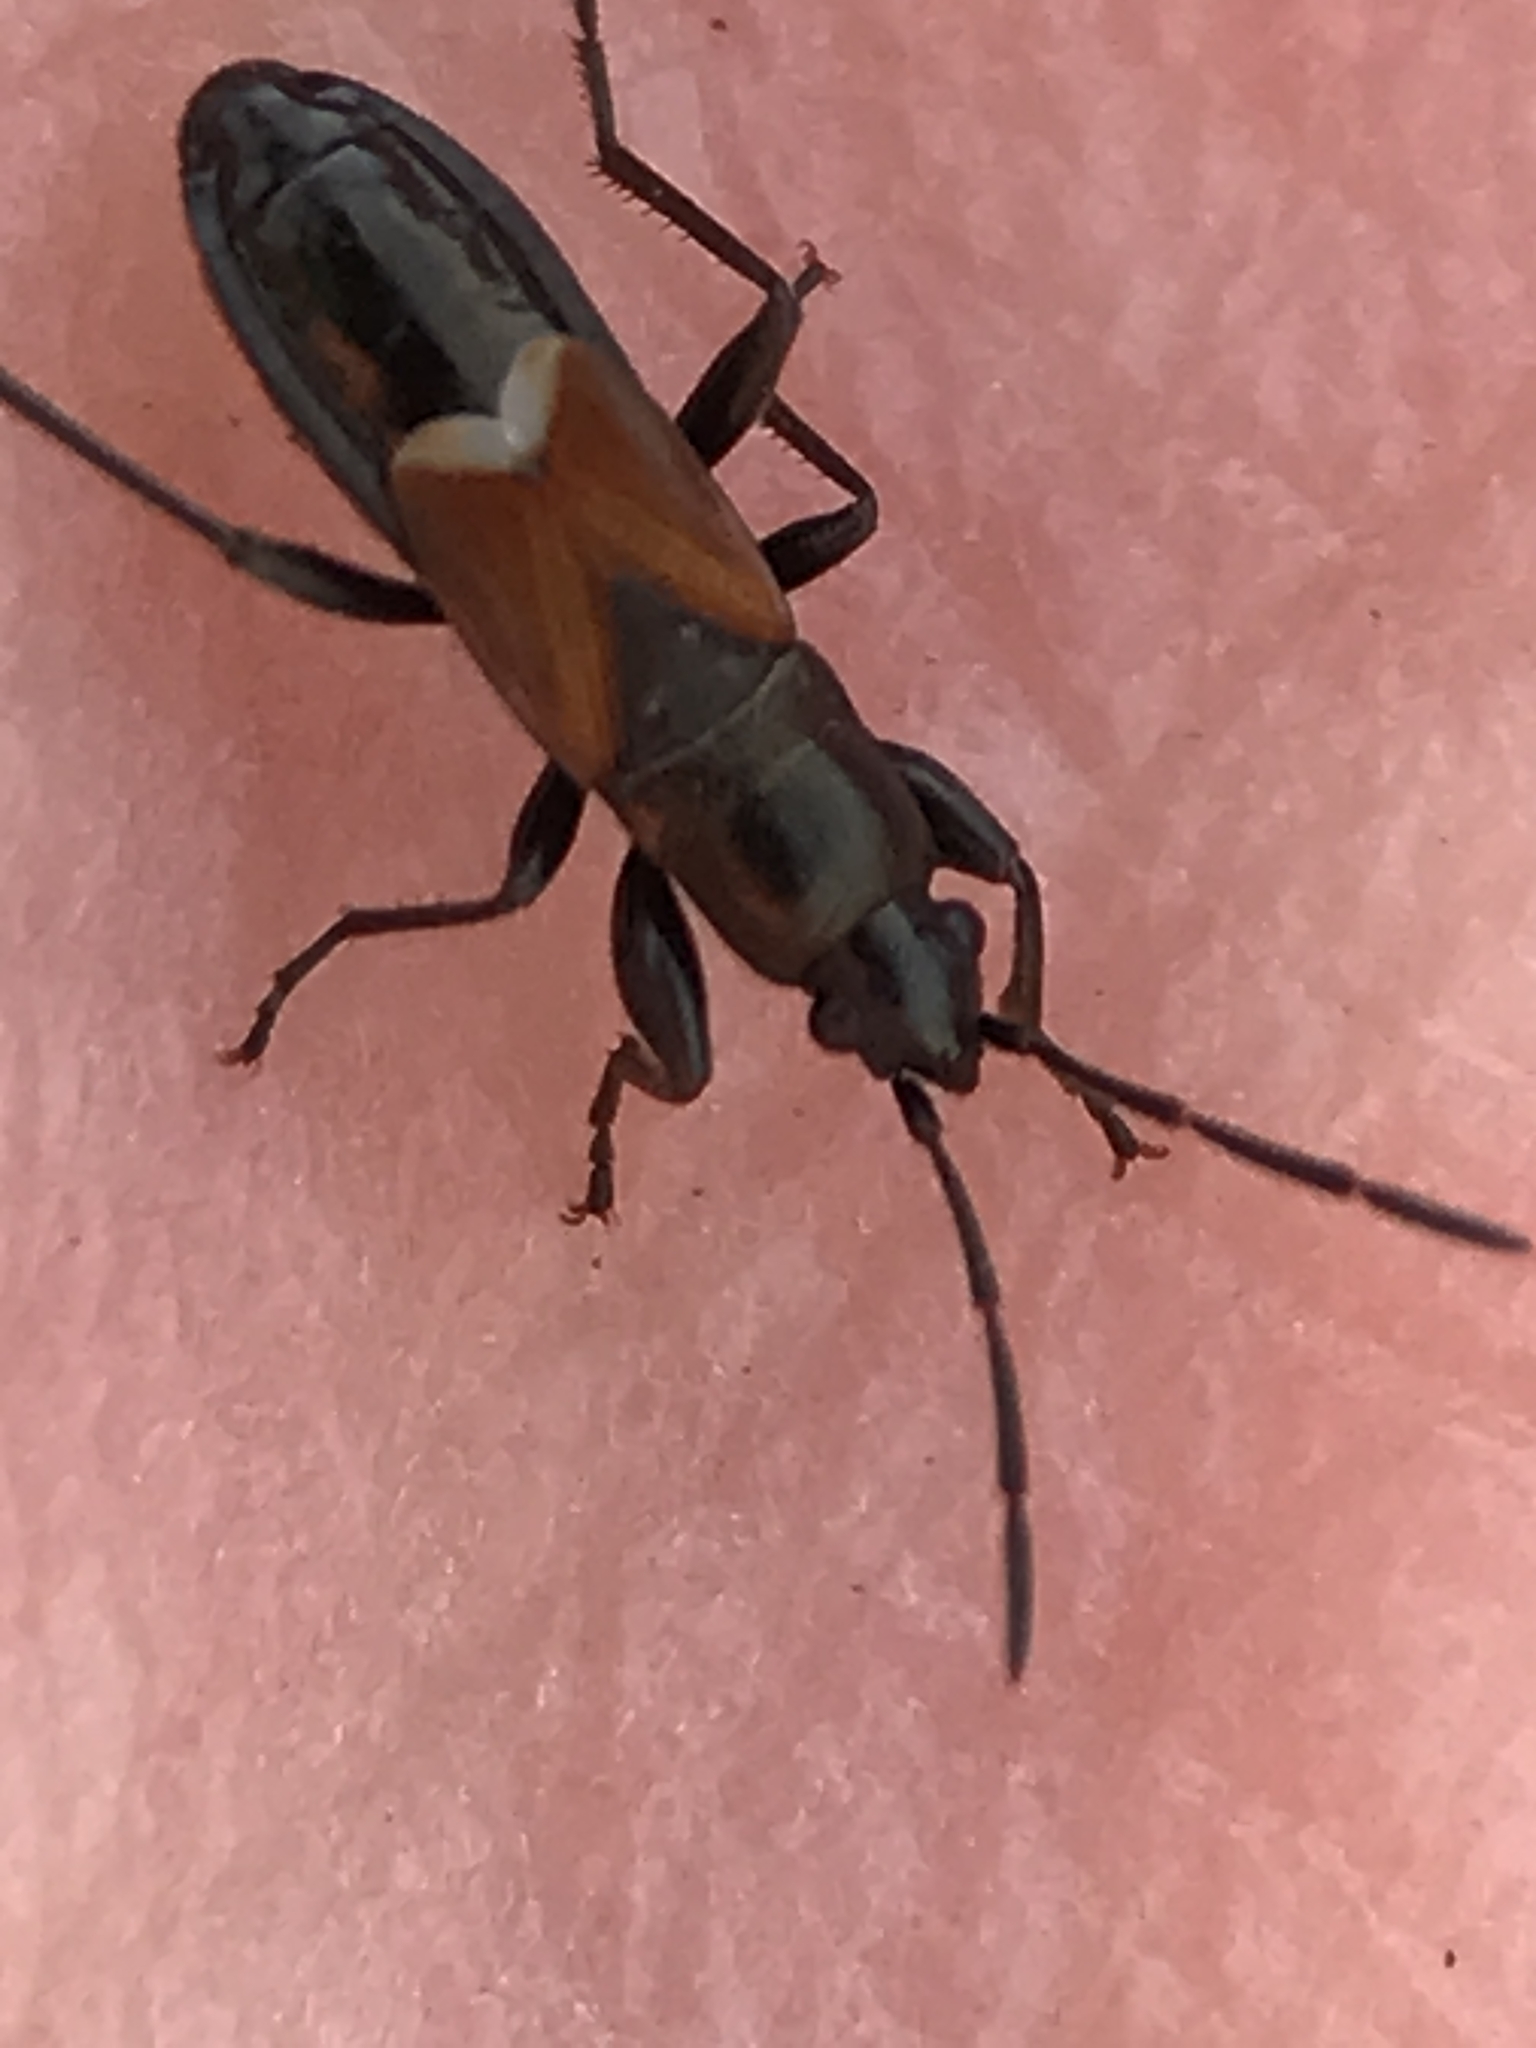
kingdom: Animalia
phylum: Arthropoda
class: Insecta
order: Hemiptera
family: Rhyparochromidae
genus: Pterotmetus
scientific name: Pterotmetus staphyliniformis
